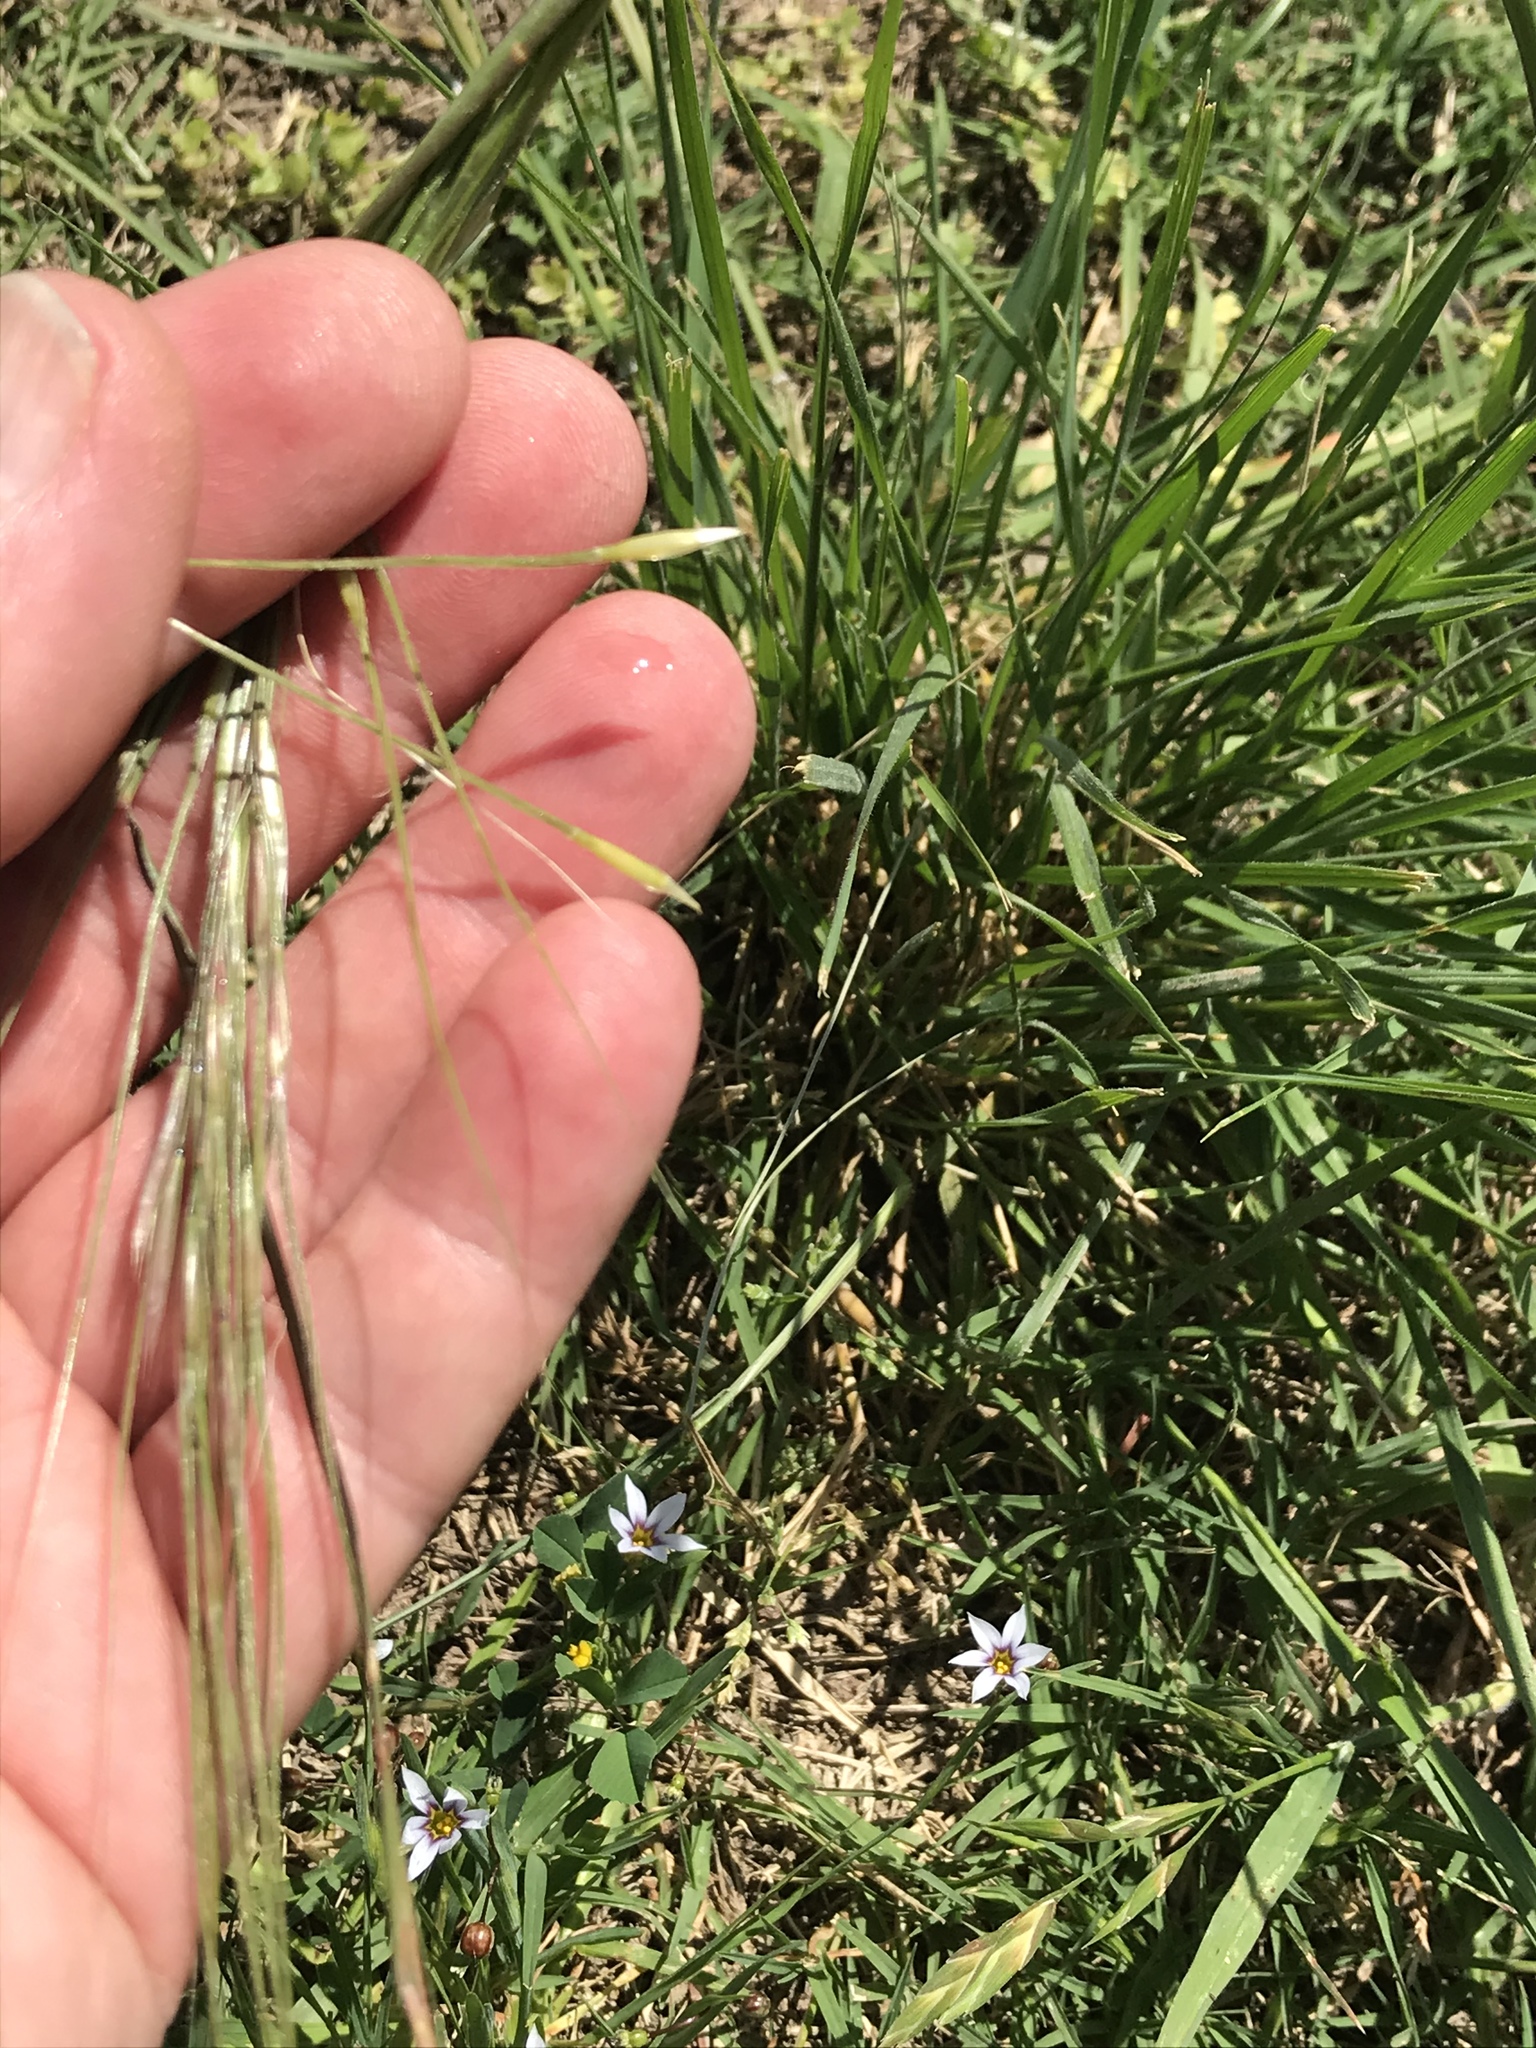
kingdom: Plantae
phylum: Tracheophyta
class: Liliopsida
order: Poales
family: Poaceae
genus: Nassella
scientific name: Nassella leucotricha
